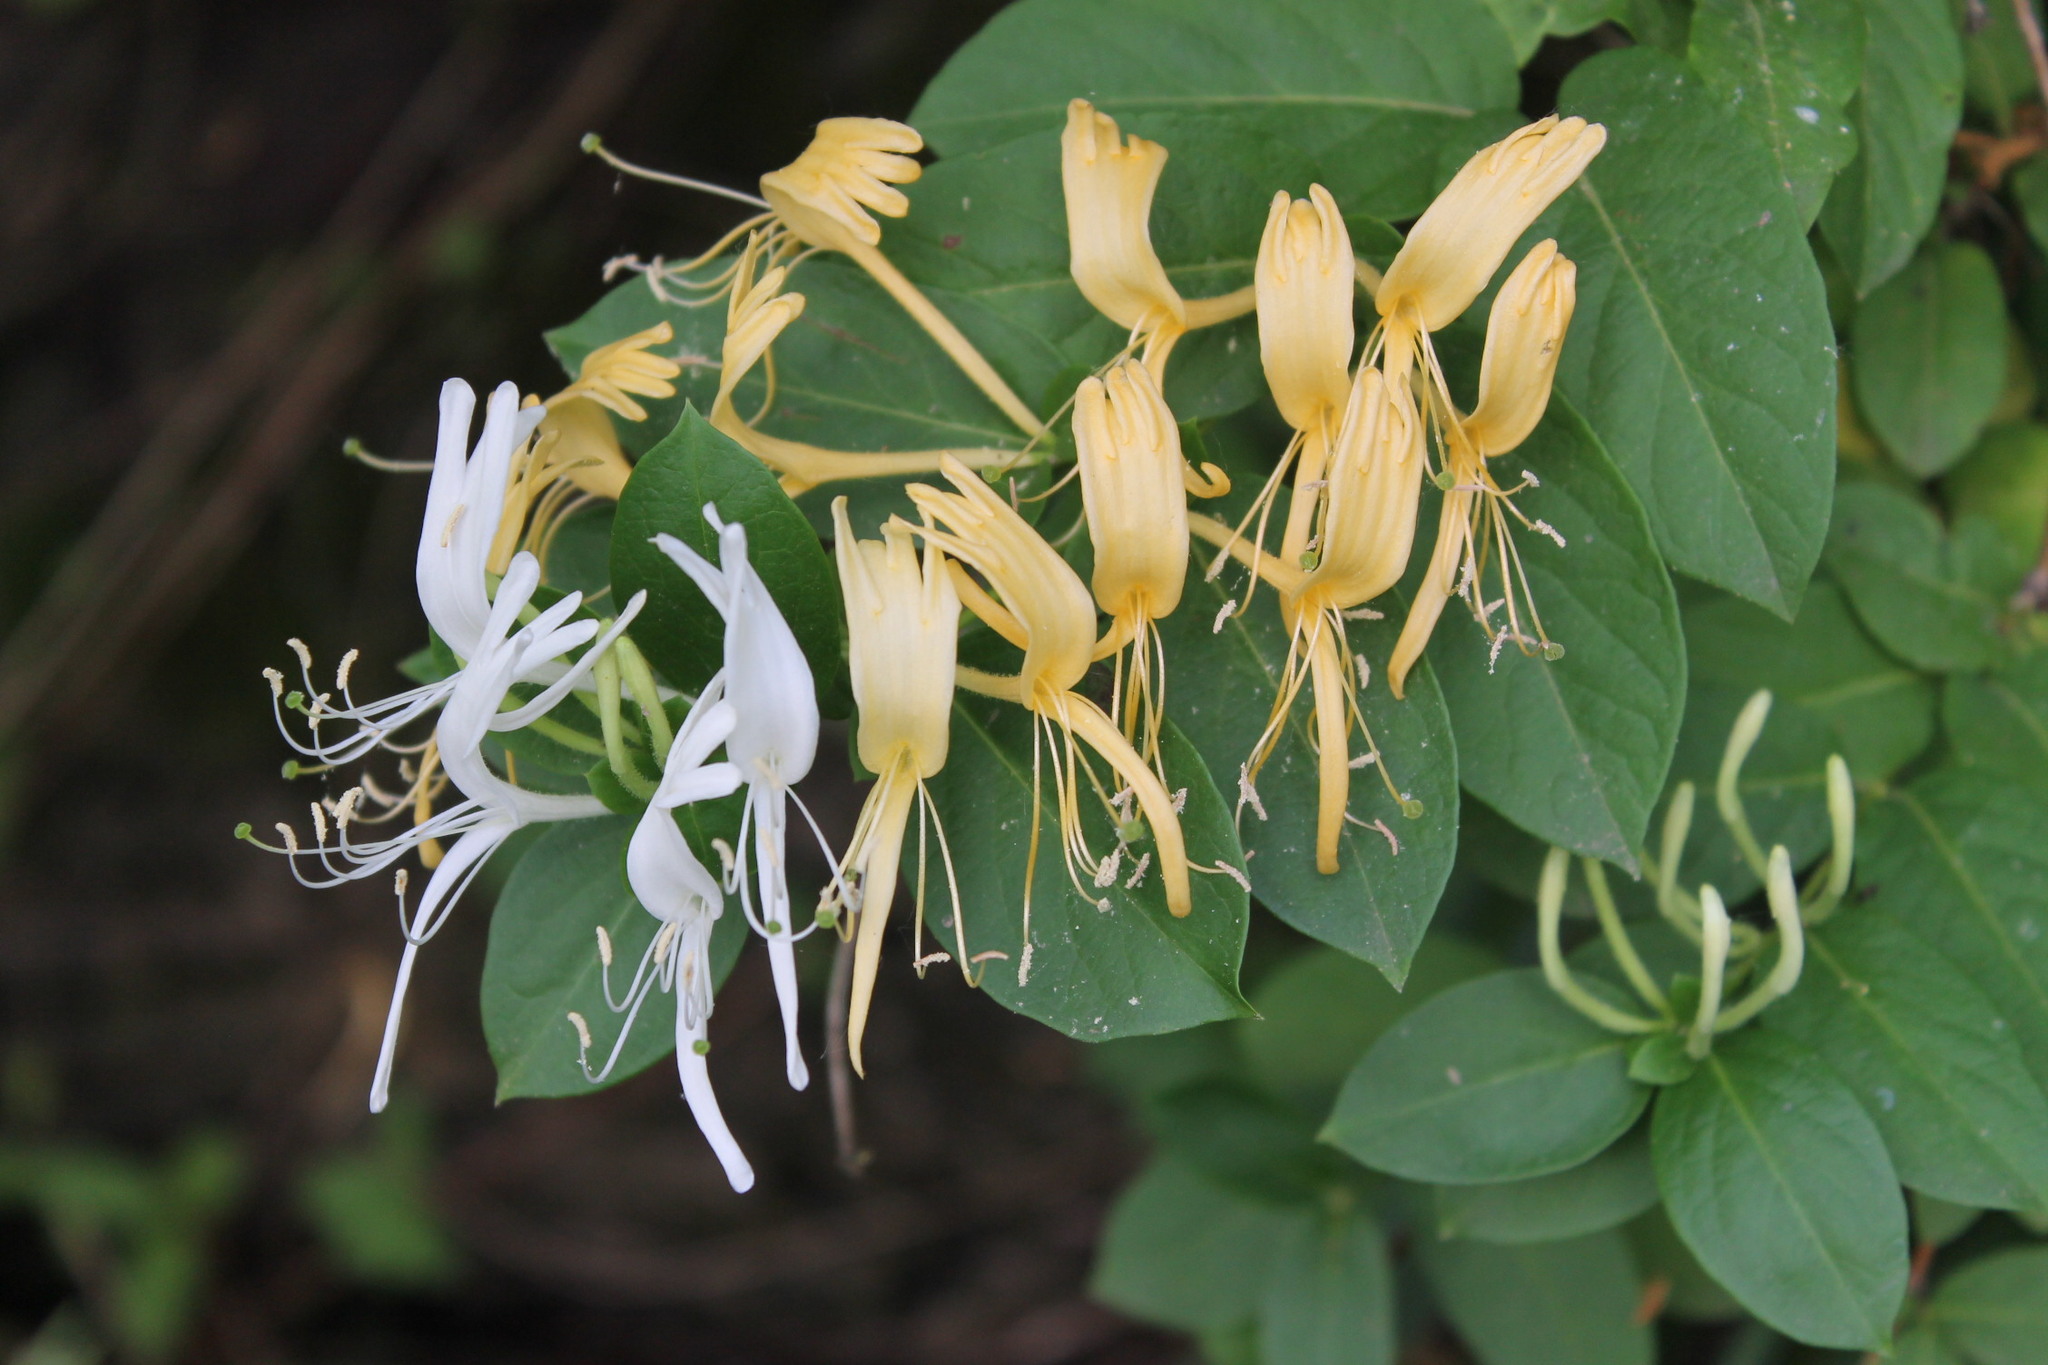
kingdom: Plantae
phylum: Tracheophyta
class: Magnoliopsida
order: Dipsacales
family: Caprifoliaceae
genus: Lonicera
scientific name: Lonicera japonica
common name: Japanese honeysuckle
